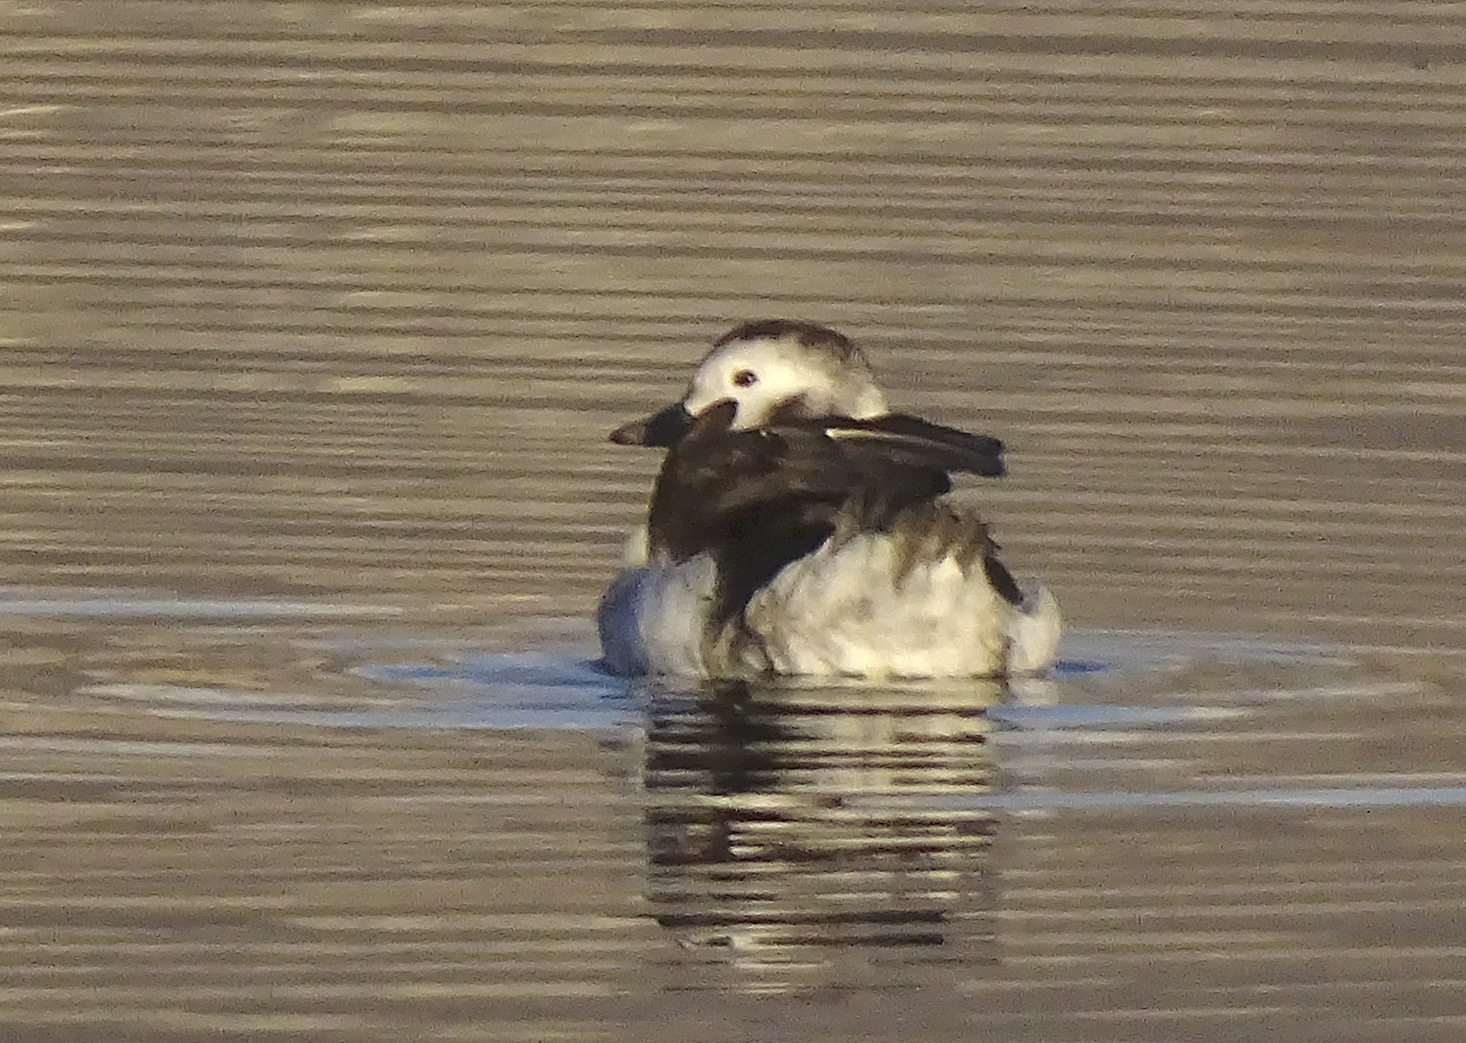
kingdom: Animalia
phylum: Chordata
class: Aves
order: Anseriformes
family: Anatidae
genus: Clangula
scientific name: Clangula hyemalis
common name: Long-tailed duck
